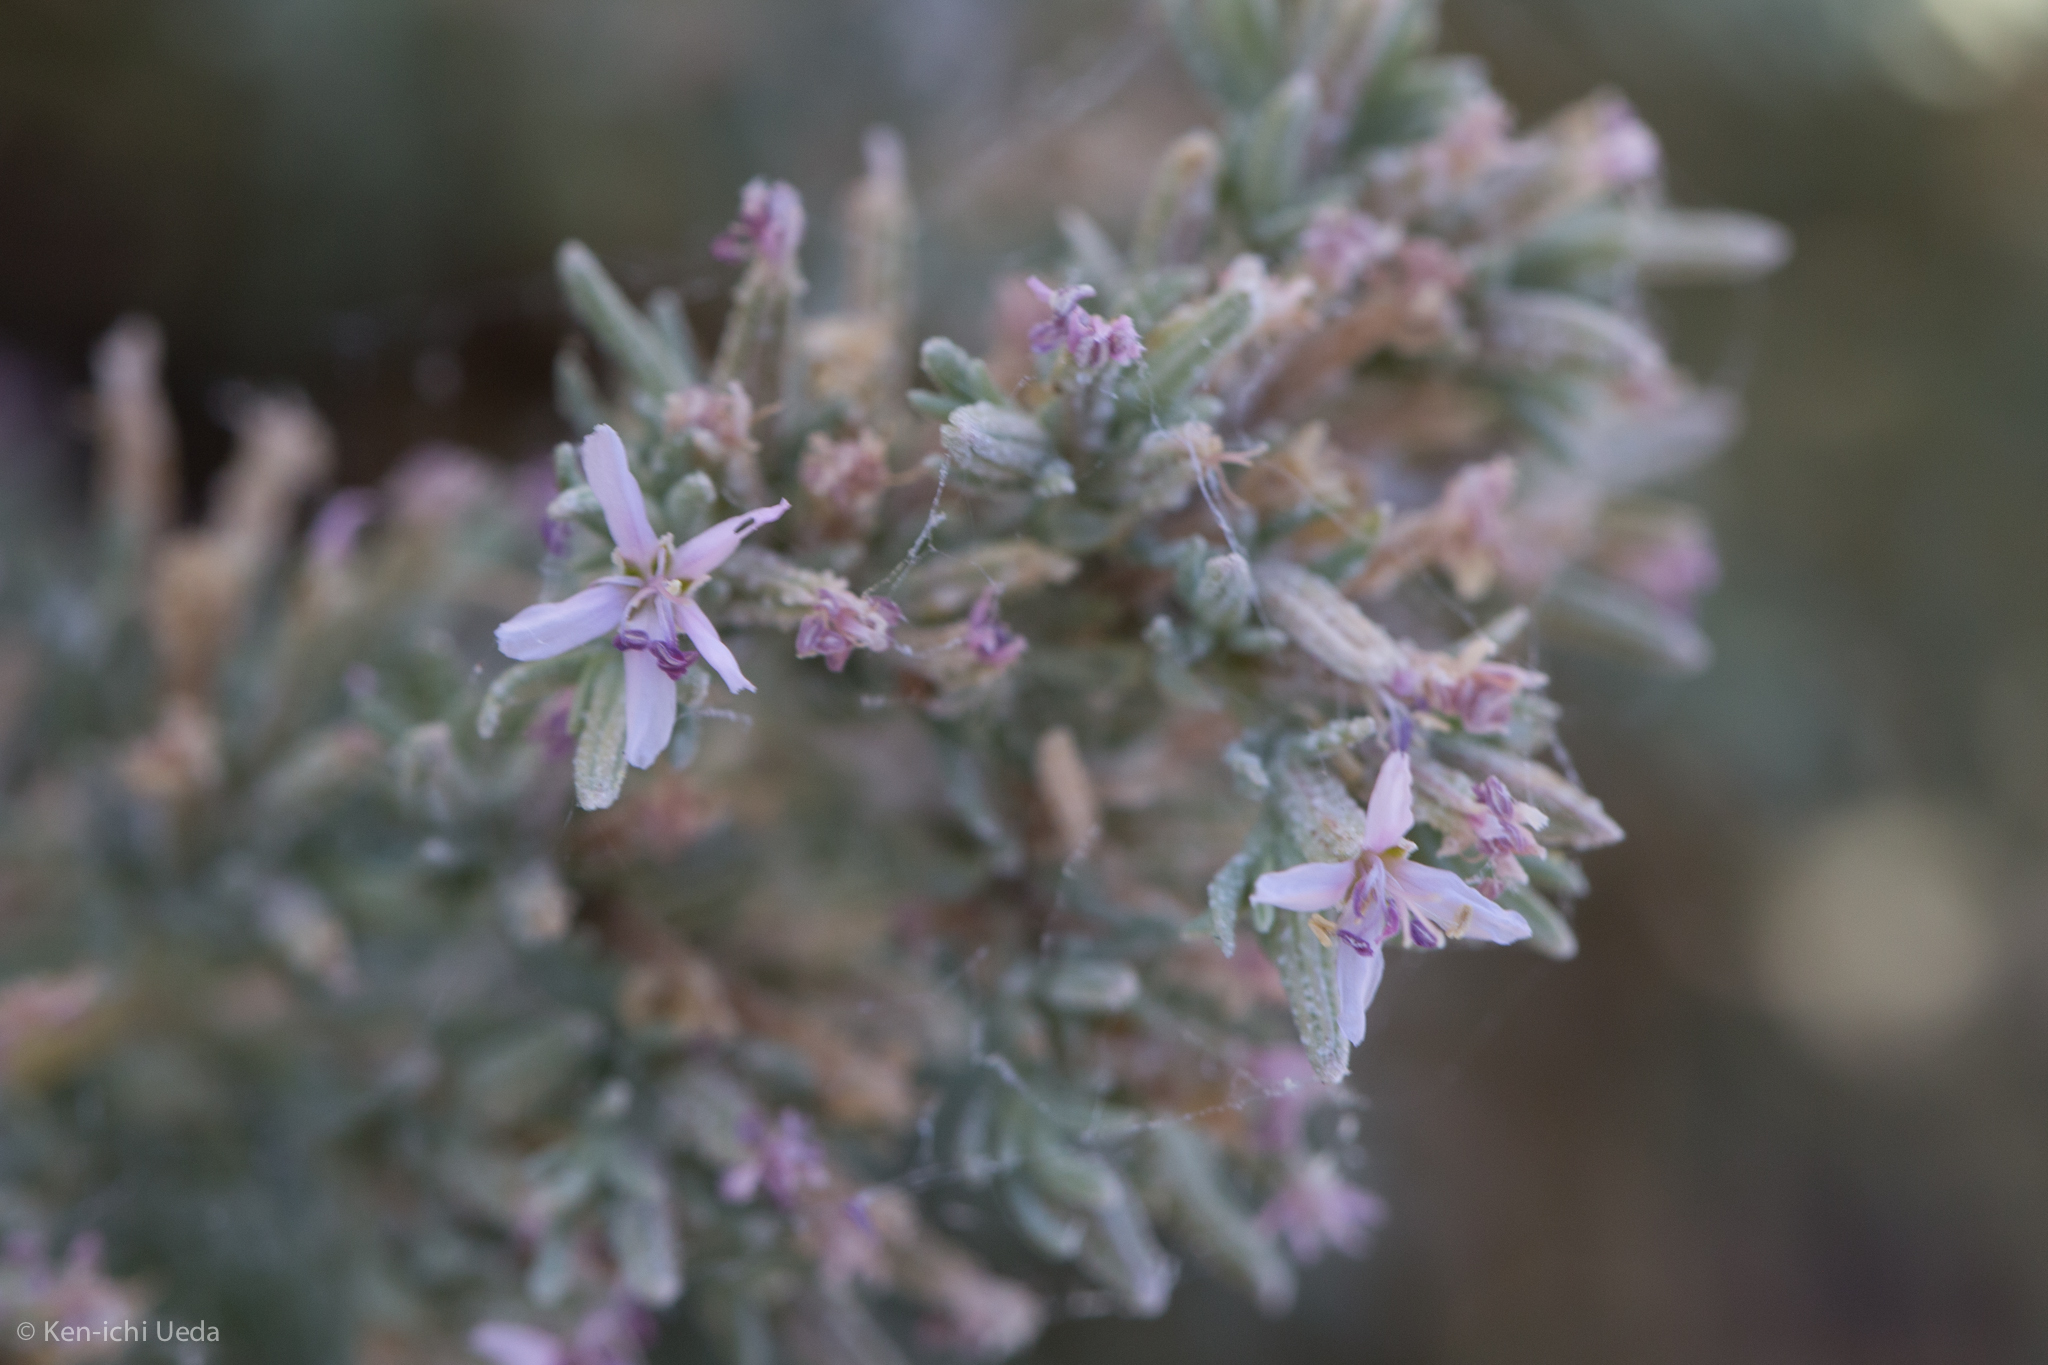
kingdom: Plantae
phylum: Tracheophyta
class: Magnoliopsida
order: Caryophyllales
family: Frankeniaceae
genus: Frankenia
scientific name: Frankenia salina
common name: Alkali seaheath
